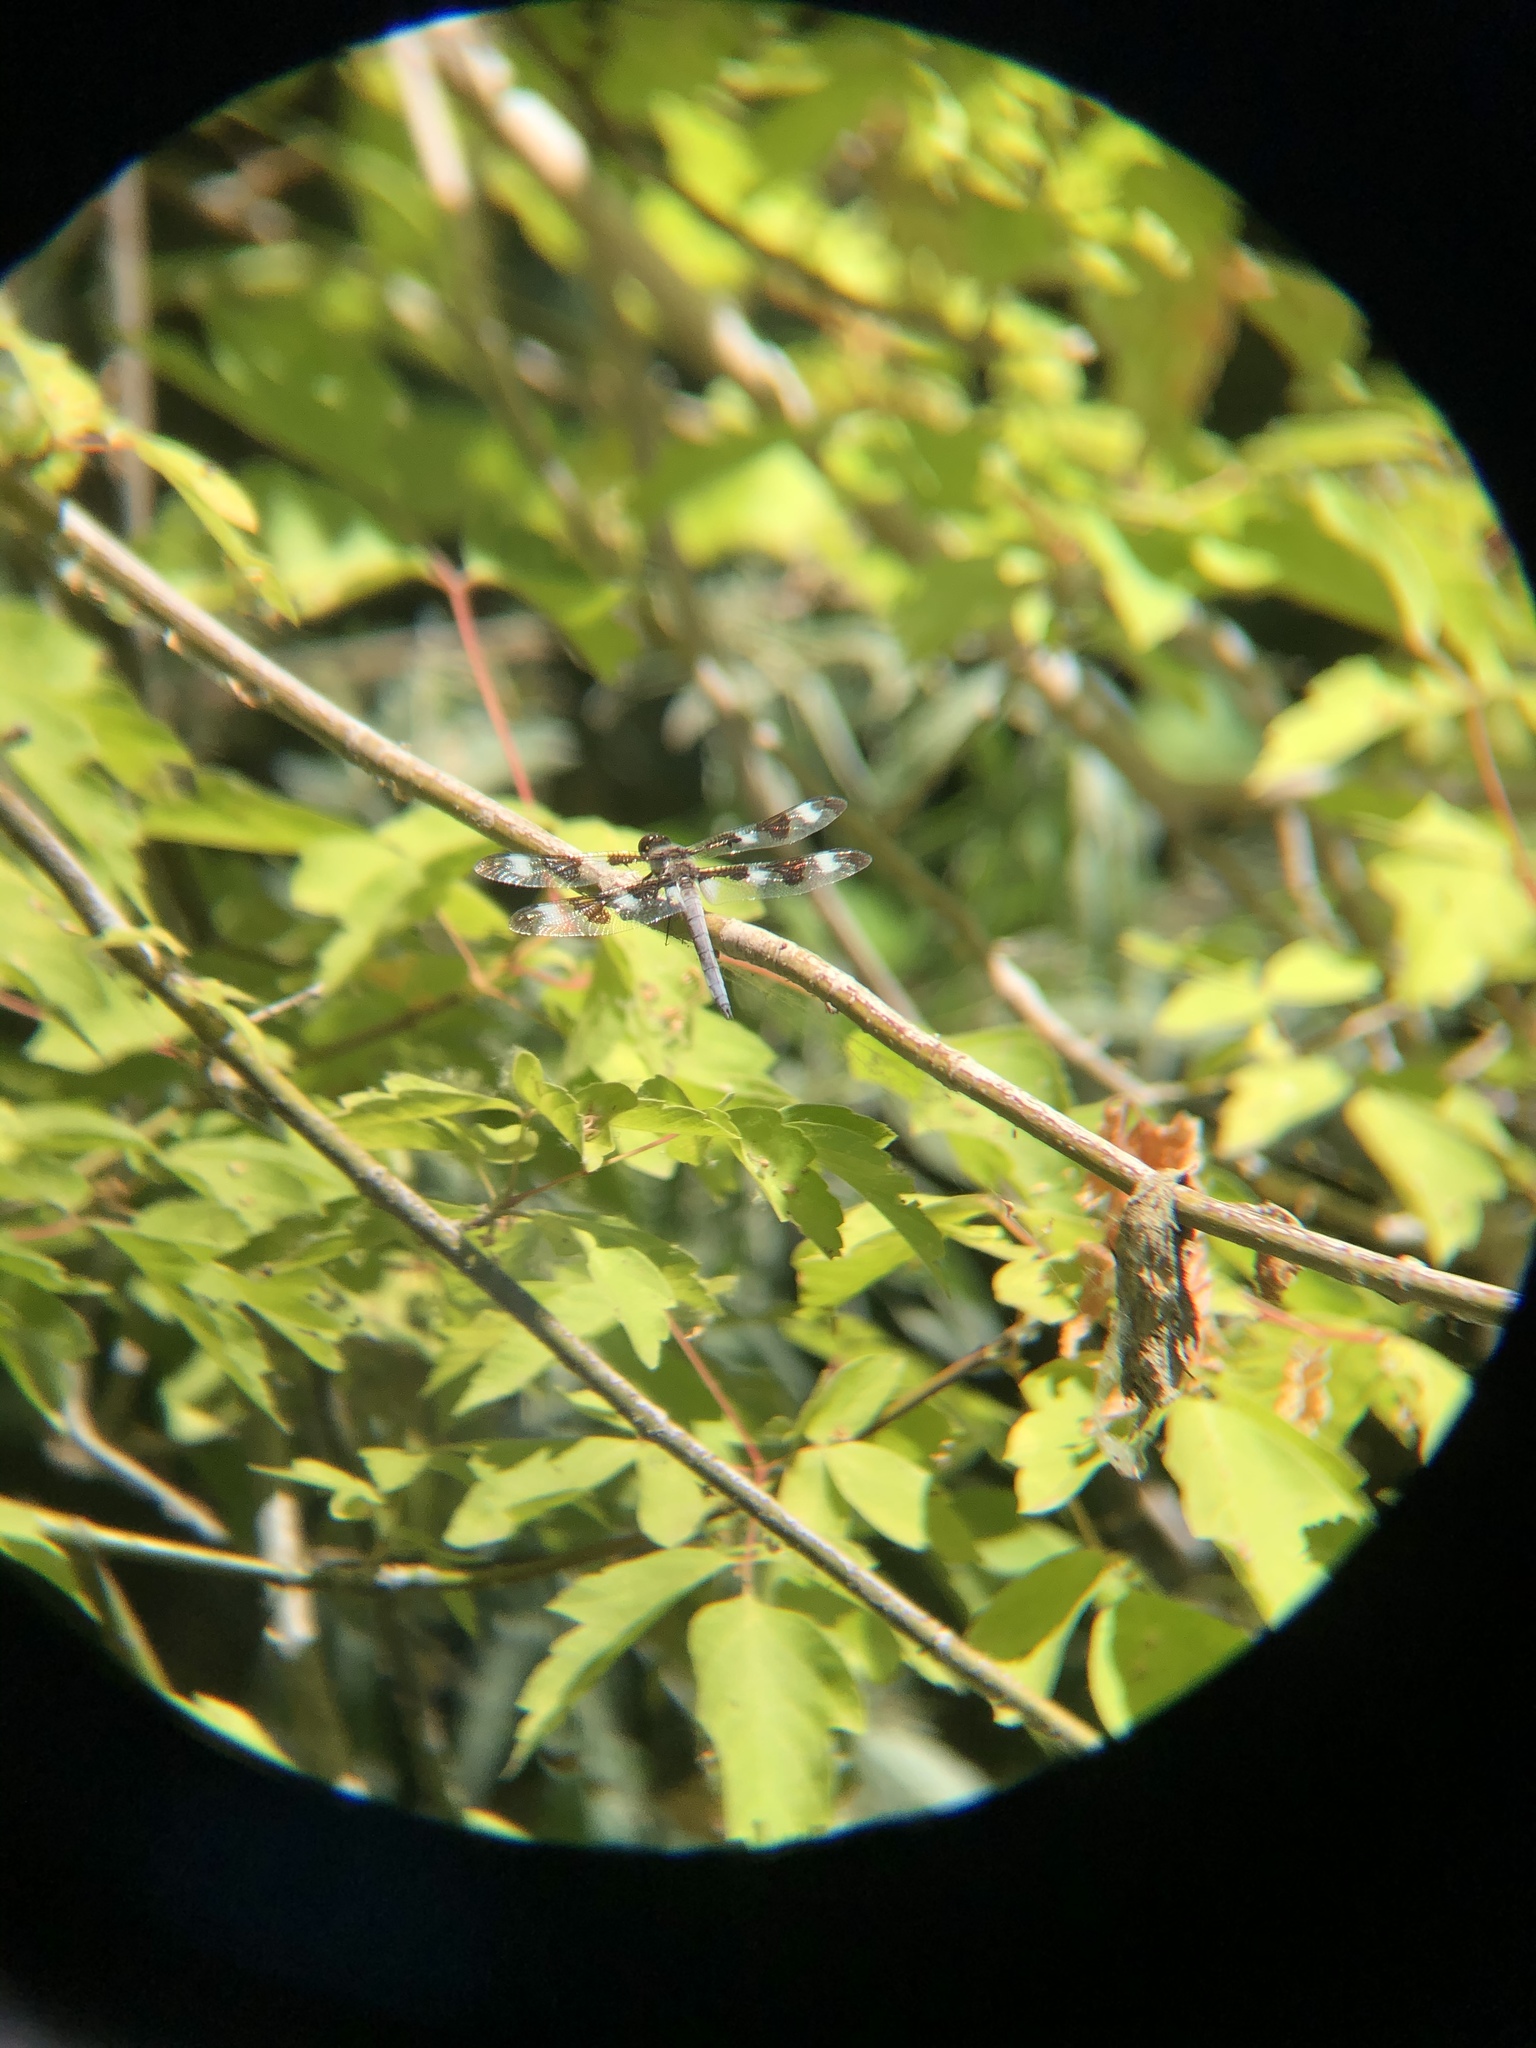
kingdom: Animalia
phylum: Arthropoda
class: Insecta
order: Odonata
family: Libellulidae
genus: Libellula
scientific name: Libellula pulchella
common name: Twelve-spotted skimmer
